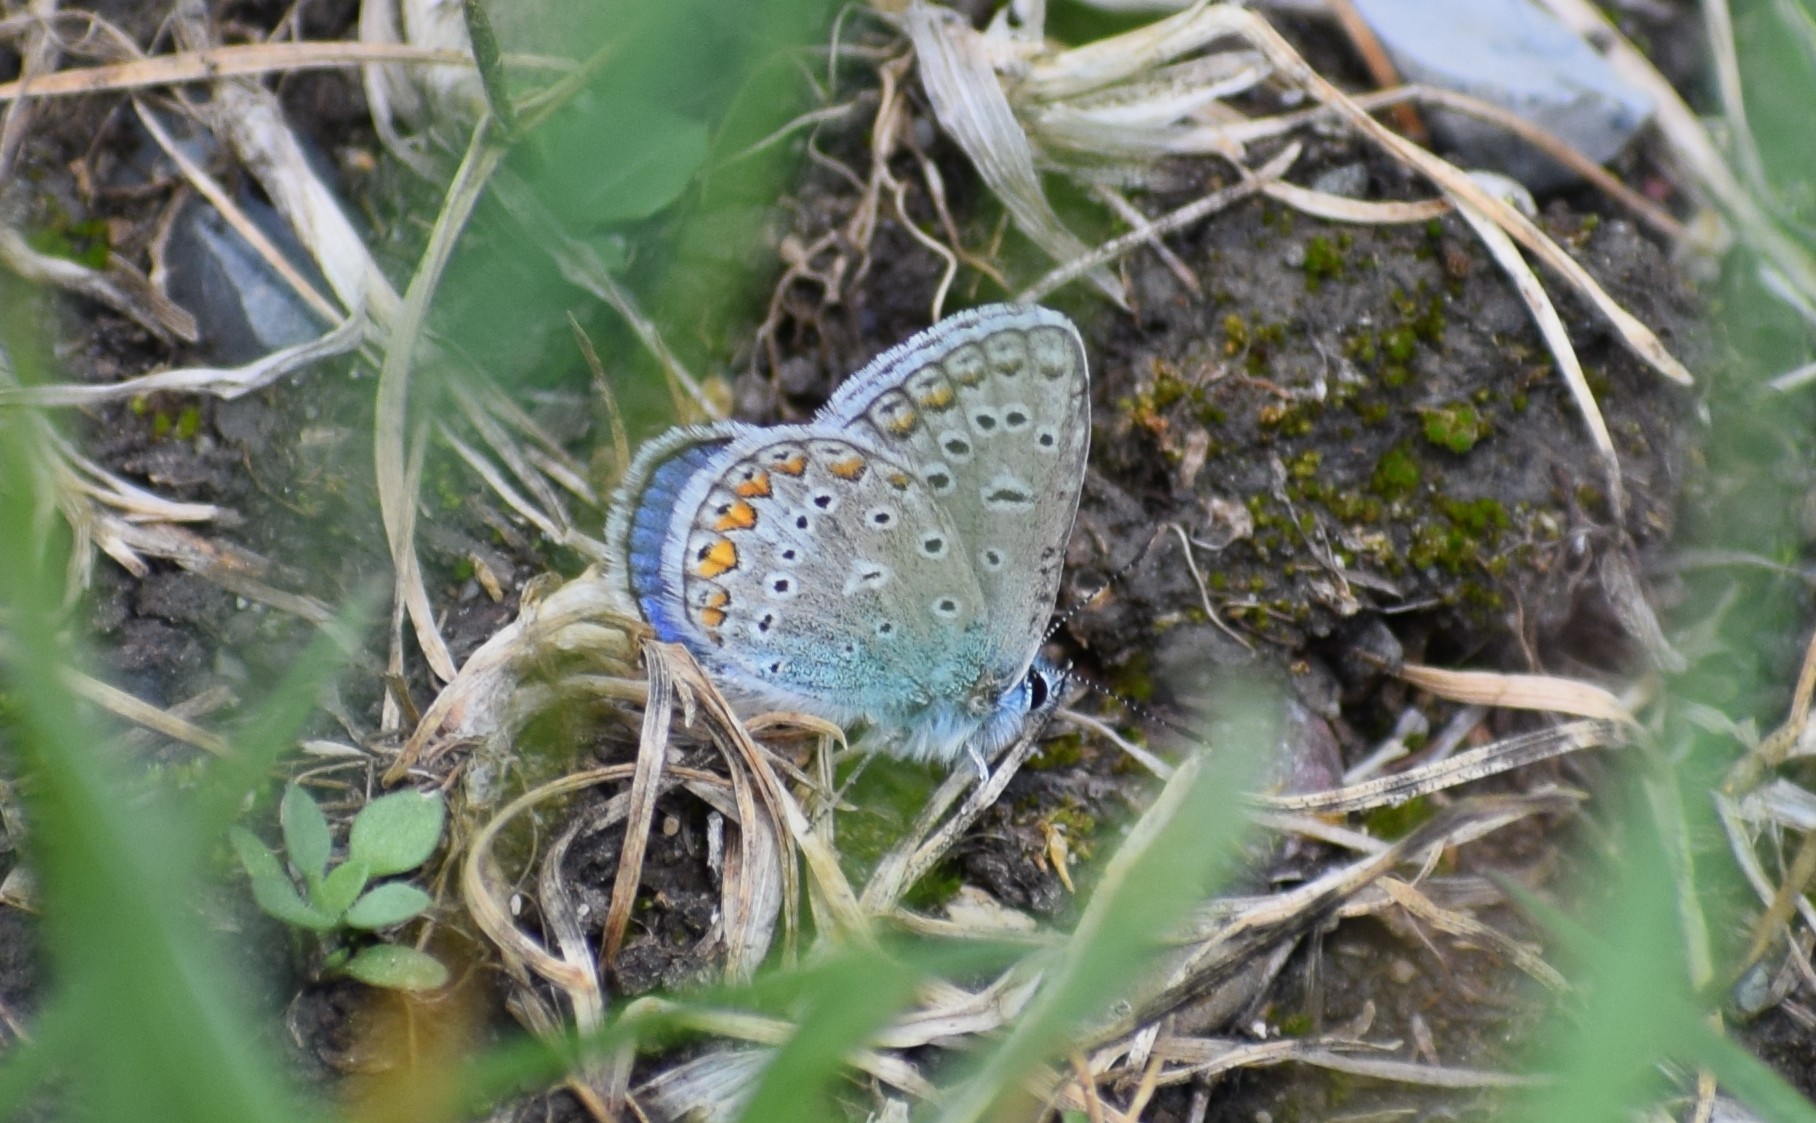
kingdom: Animalia
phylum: Arthropoda
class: Insecta
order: Lepidoptera
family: Lycaenidae
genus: Polyommatus
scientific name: Polyommatus icarus
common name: Common blue
